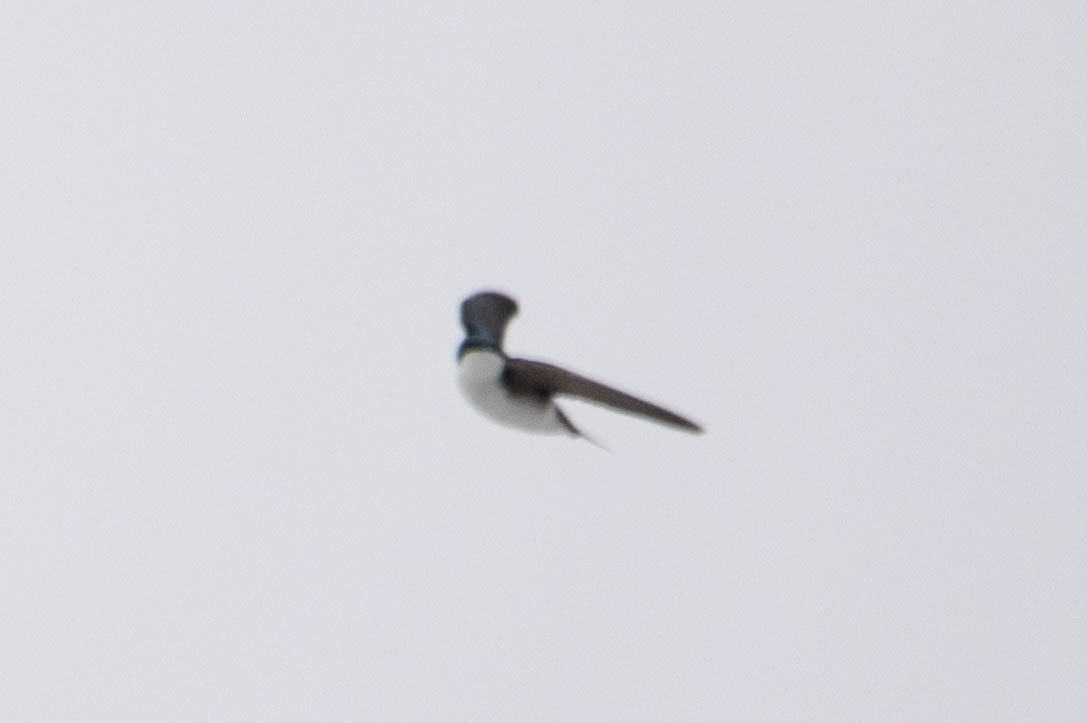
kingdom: Animalia
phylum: Chordata
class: Aves
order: Passeriformes
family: Hirundinidae
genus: Tachycineta
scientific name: Tachycineta bicolor
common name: Tree swallow
